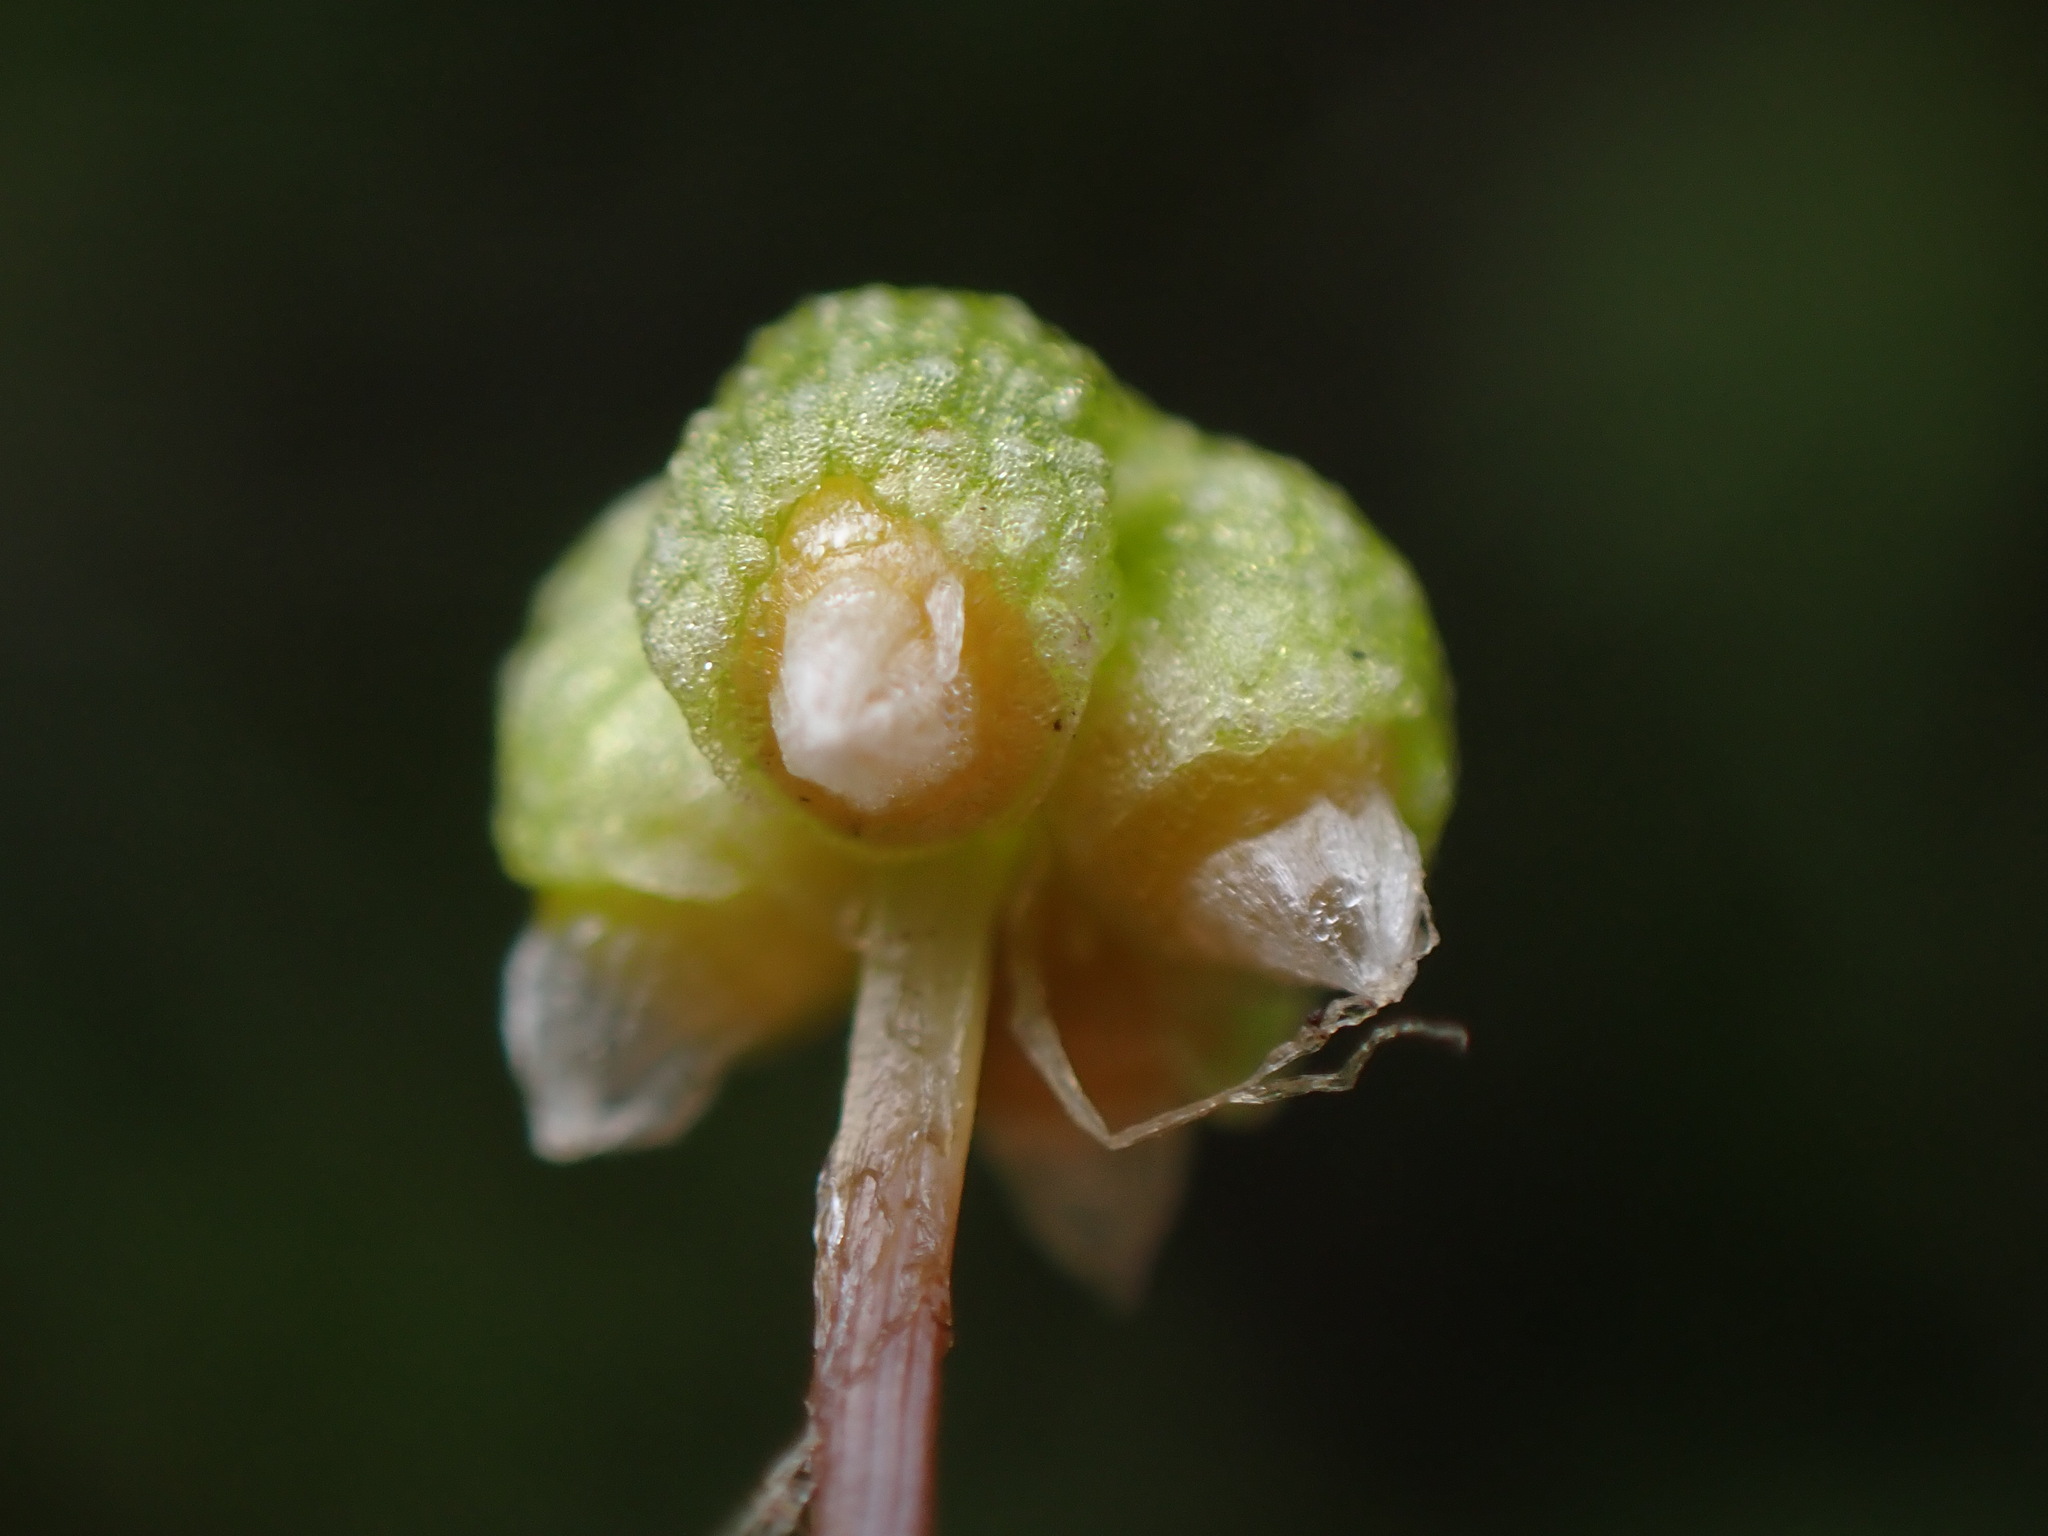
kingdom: Plantae
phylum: Marchantiophyta
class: Marchantiopsida
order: Marchantiales
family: Aytoniaceae
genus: Asterella
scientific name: Asterella californica
